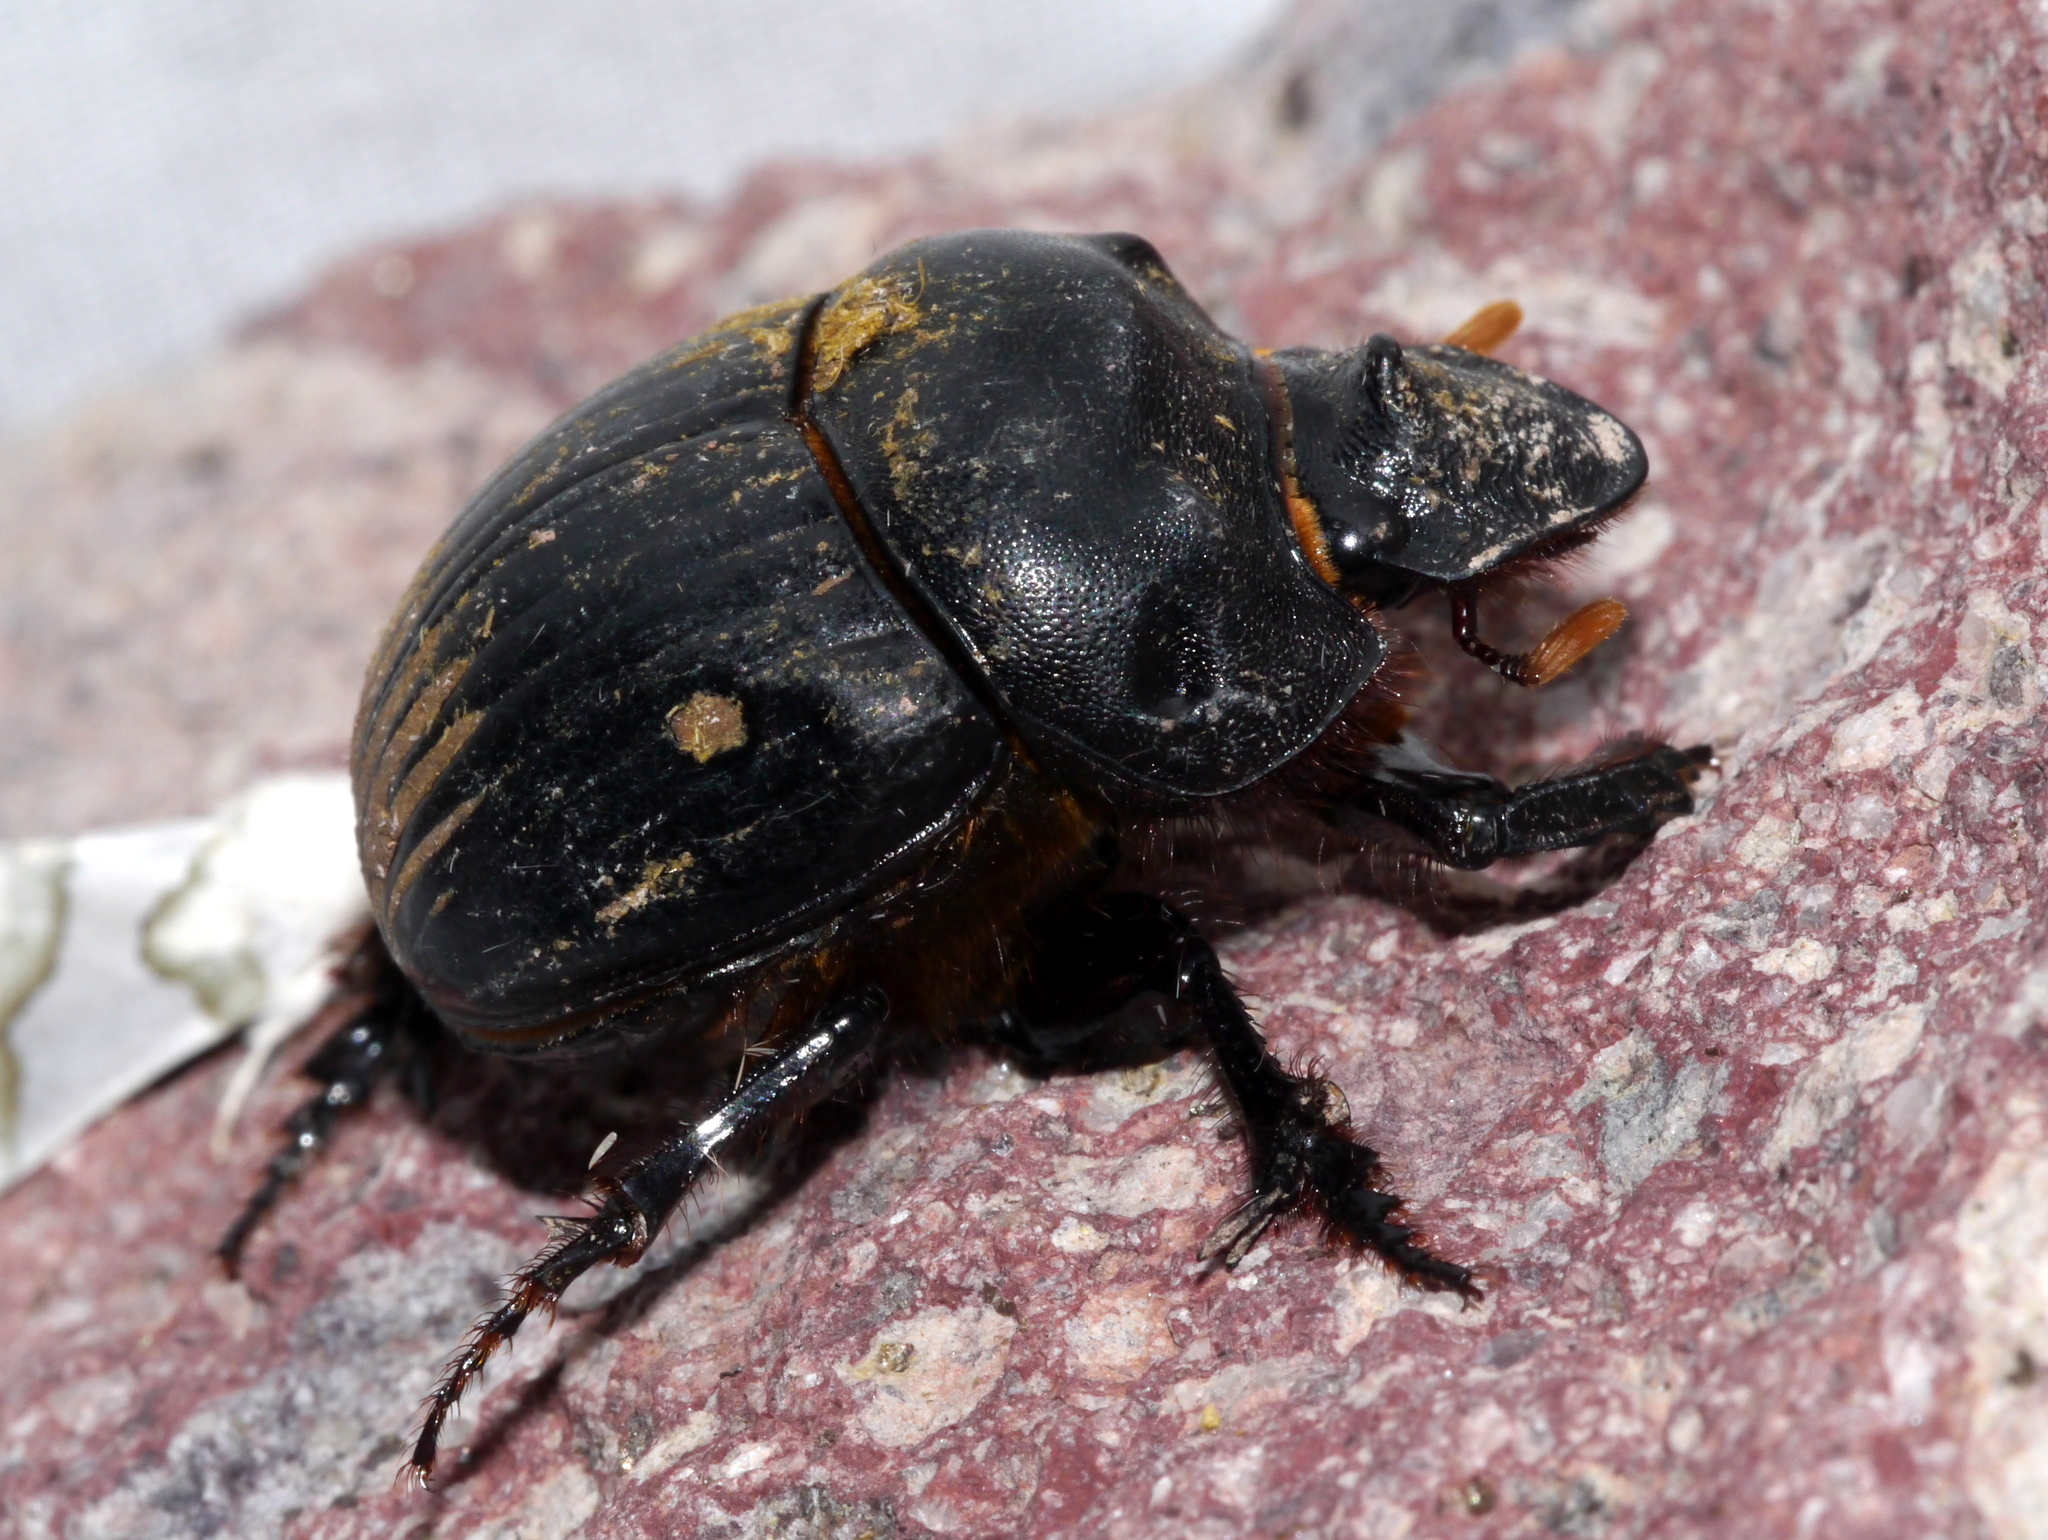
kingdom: Animalia
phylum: Arthropoda
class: Insecta
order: Coleoptera
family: Scarabaeidae
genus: Dichotomius
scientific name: Dichotomius colonicus
